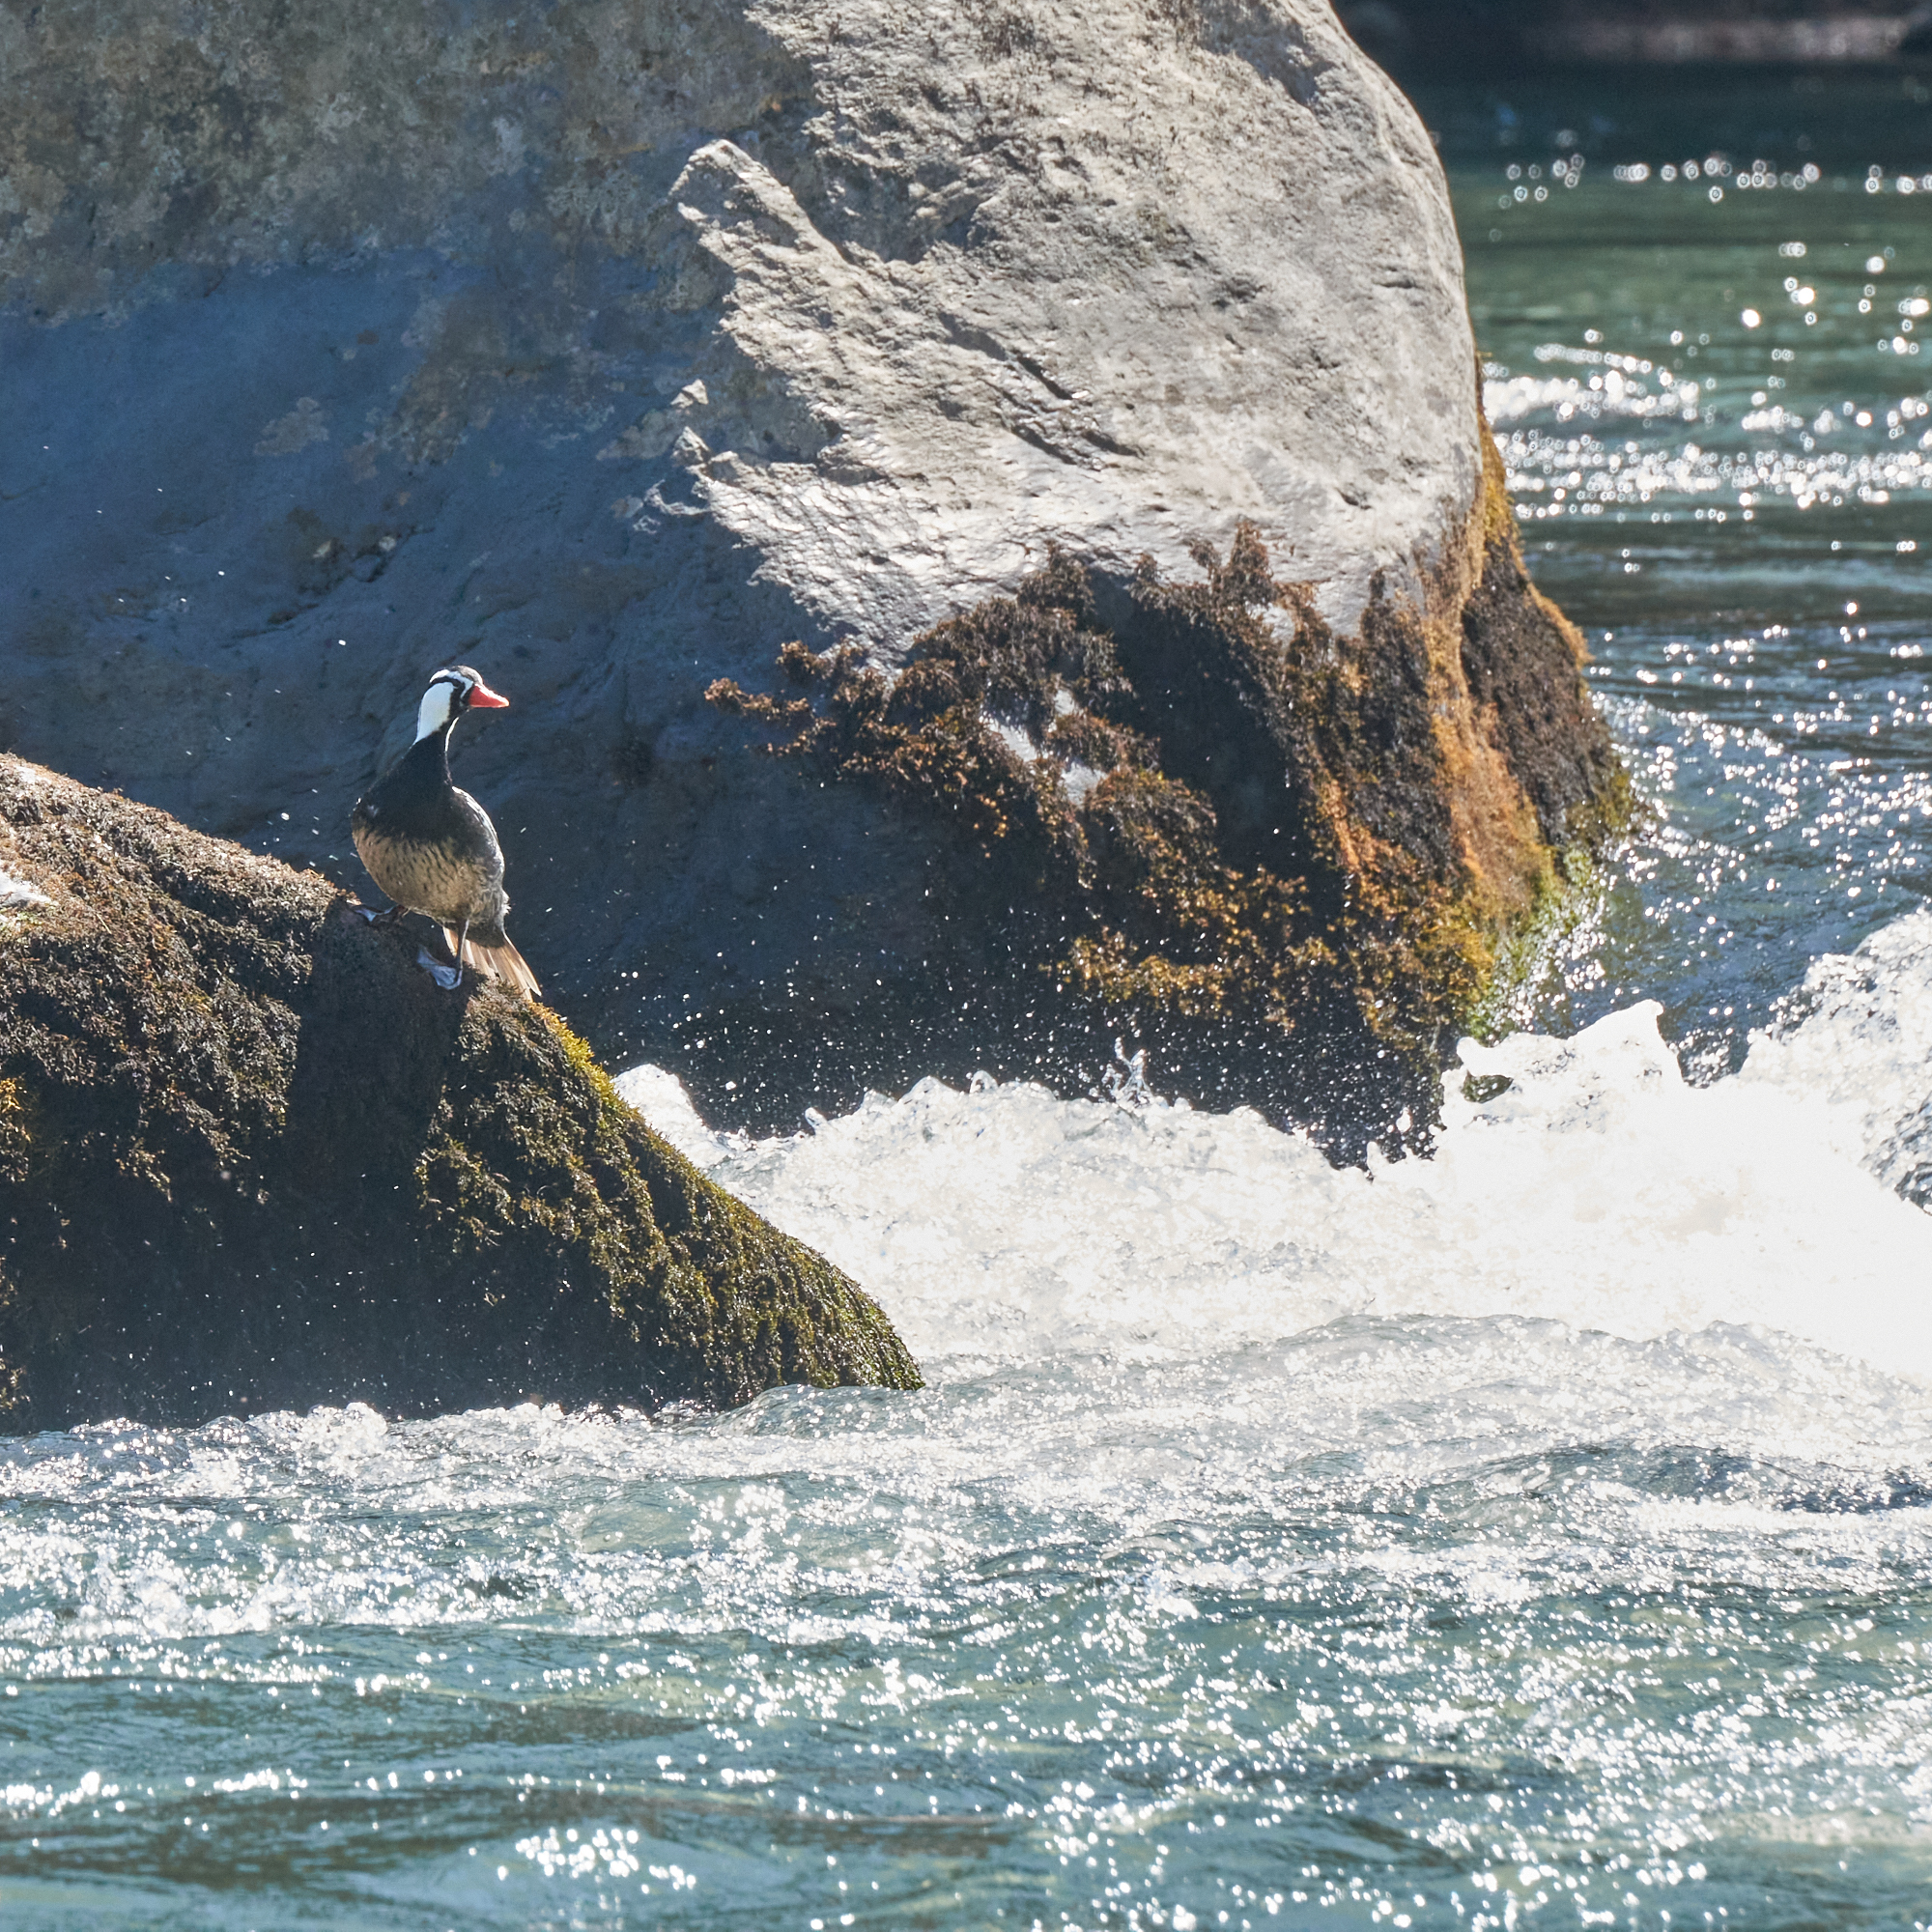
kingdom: Animalia
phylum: Chordata
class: Aves
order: Anseriformes
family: Anatidae
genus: Merganetta
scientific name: Merganetta armata
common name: Torrent duck
